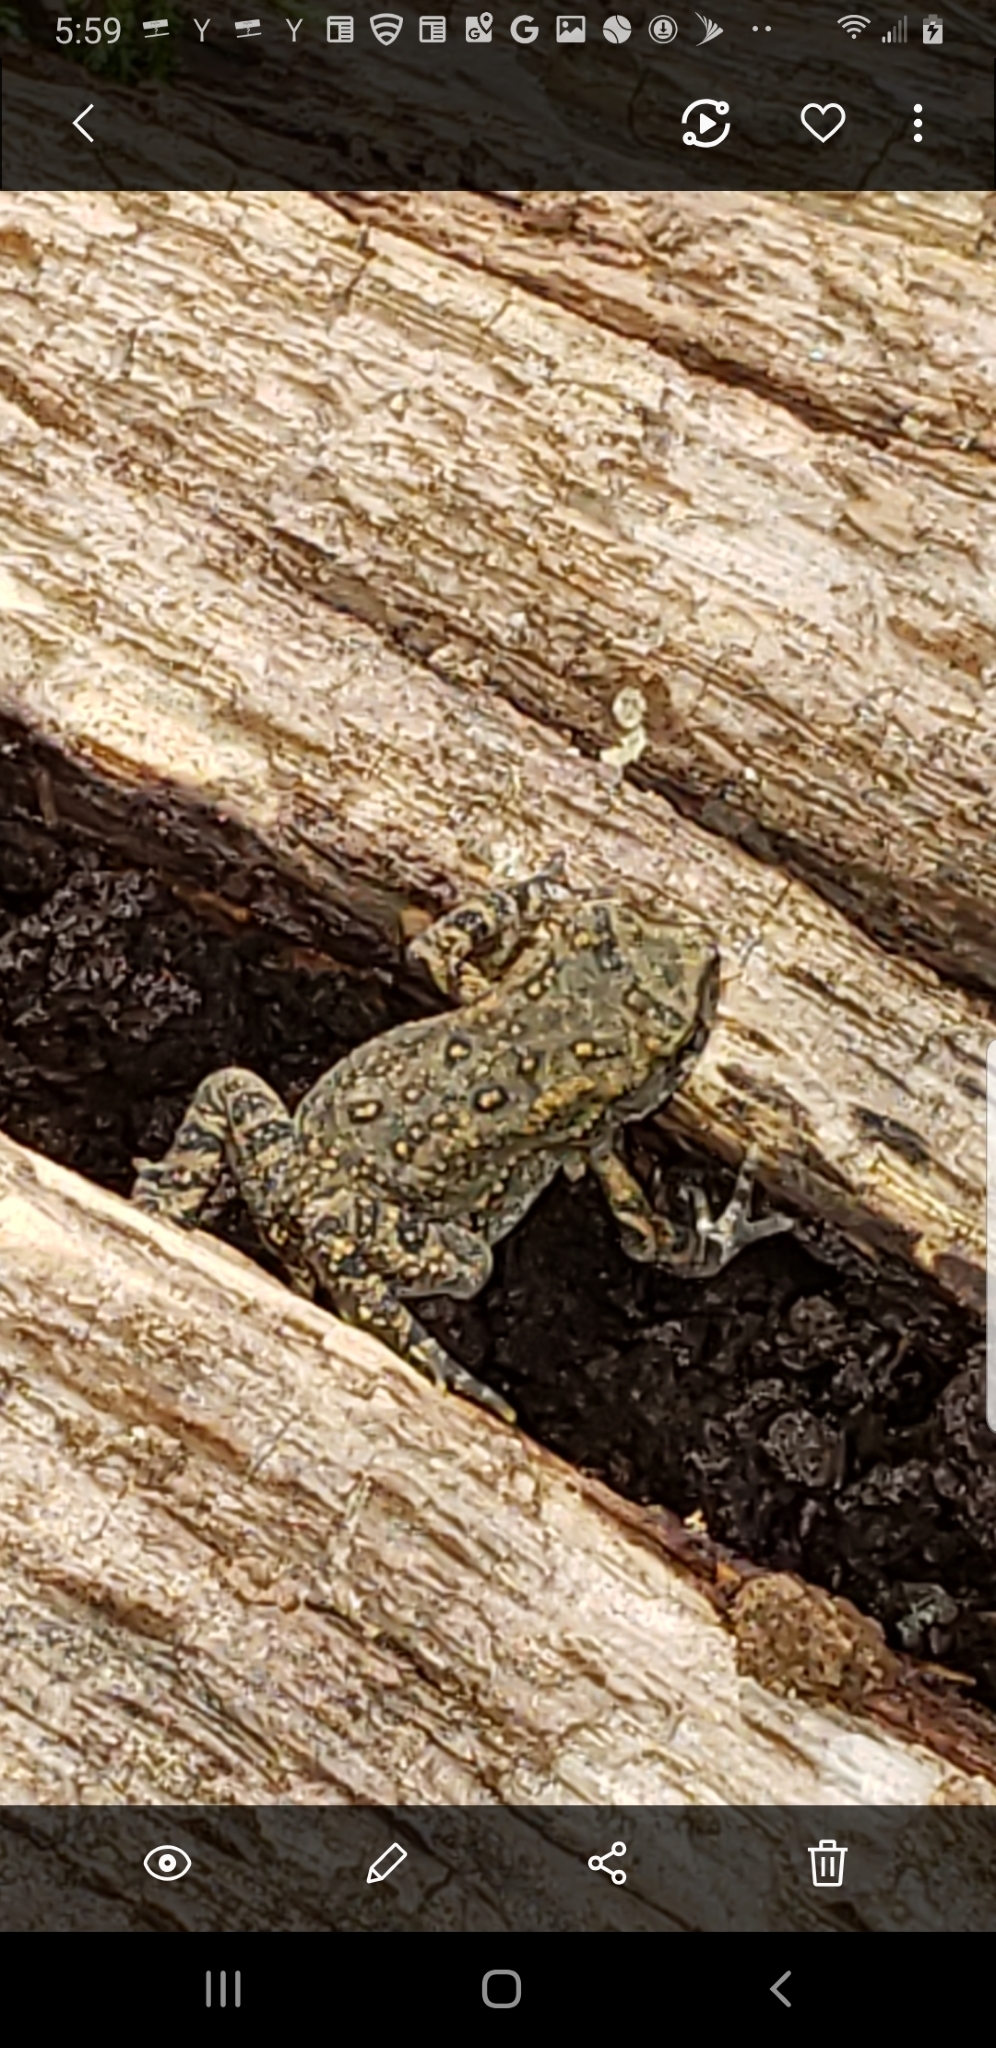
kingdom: Animalia
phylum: Chordata
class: Amphibia
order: Anura
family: Bufonidae
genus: Anaxyrus
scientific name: Anaxyrus americanus
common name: American toad
